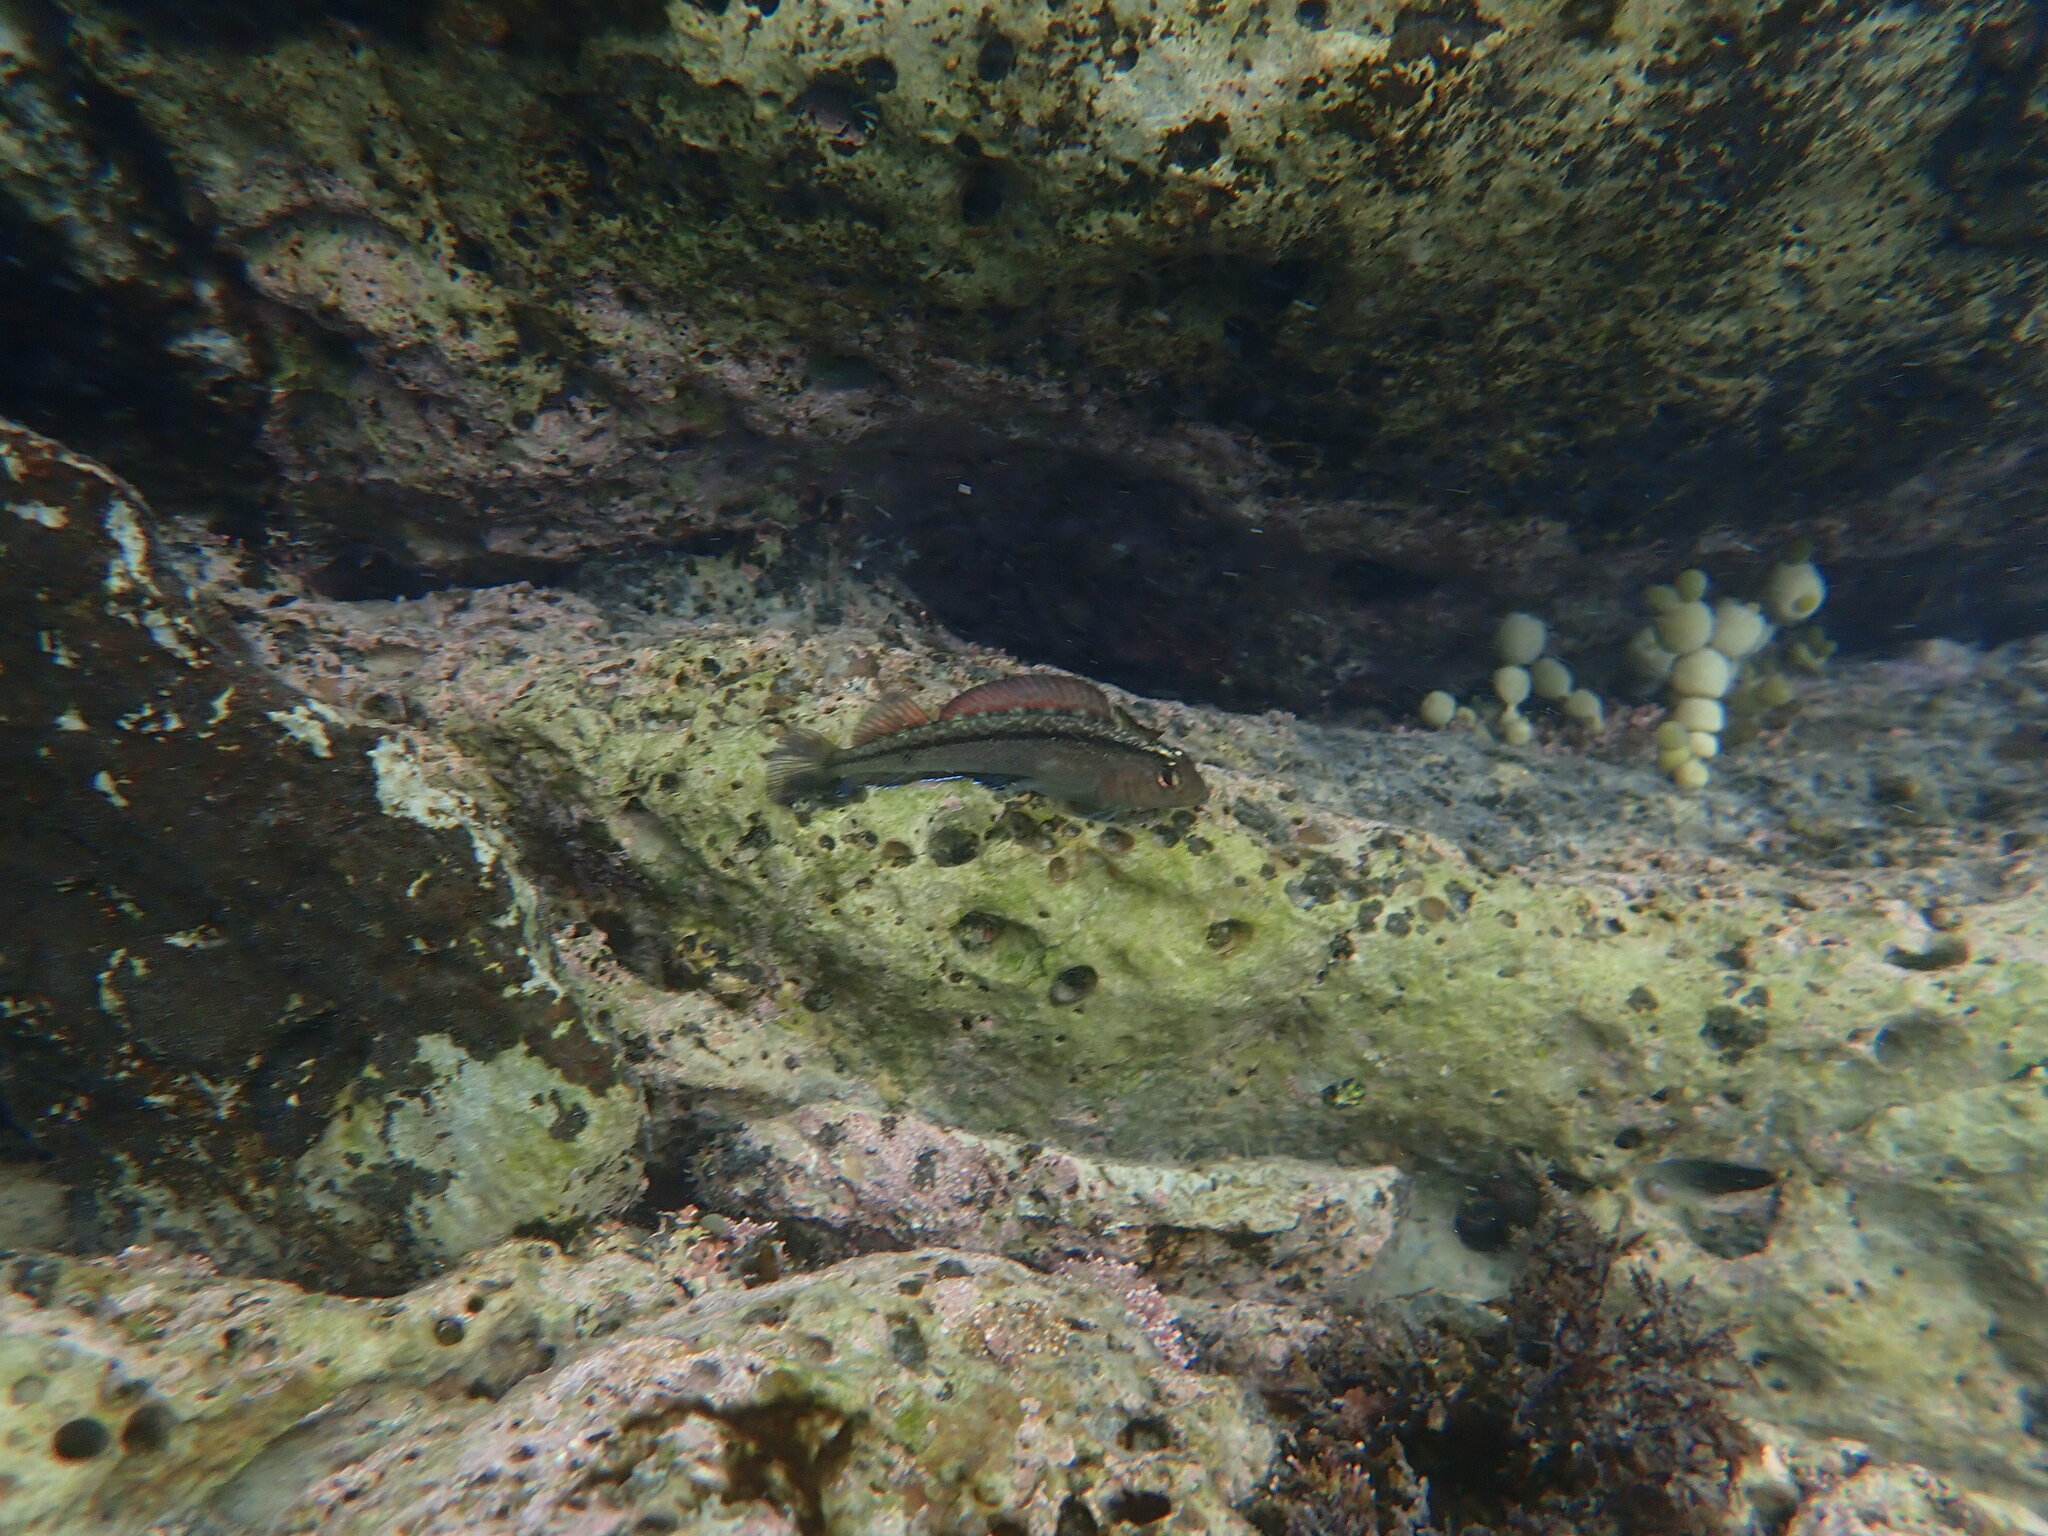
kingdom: Animalia
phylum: Chordata
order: Perciformes
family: Tripterygiidae
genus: Forsterygion
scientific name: Forsterygion lapillum
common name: Common triplefin
